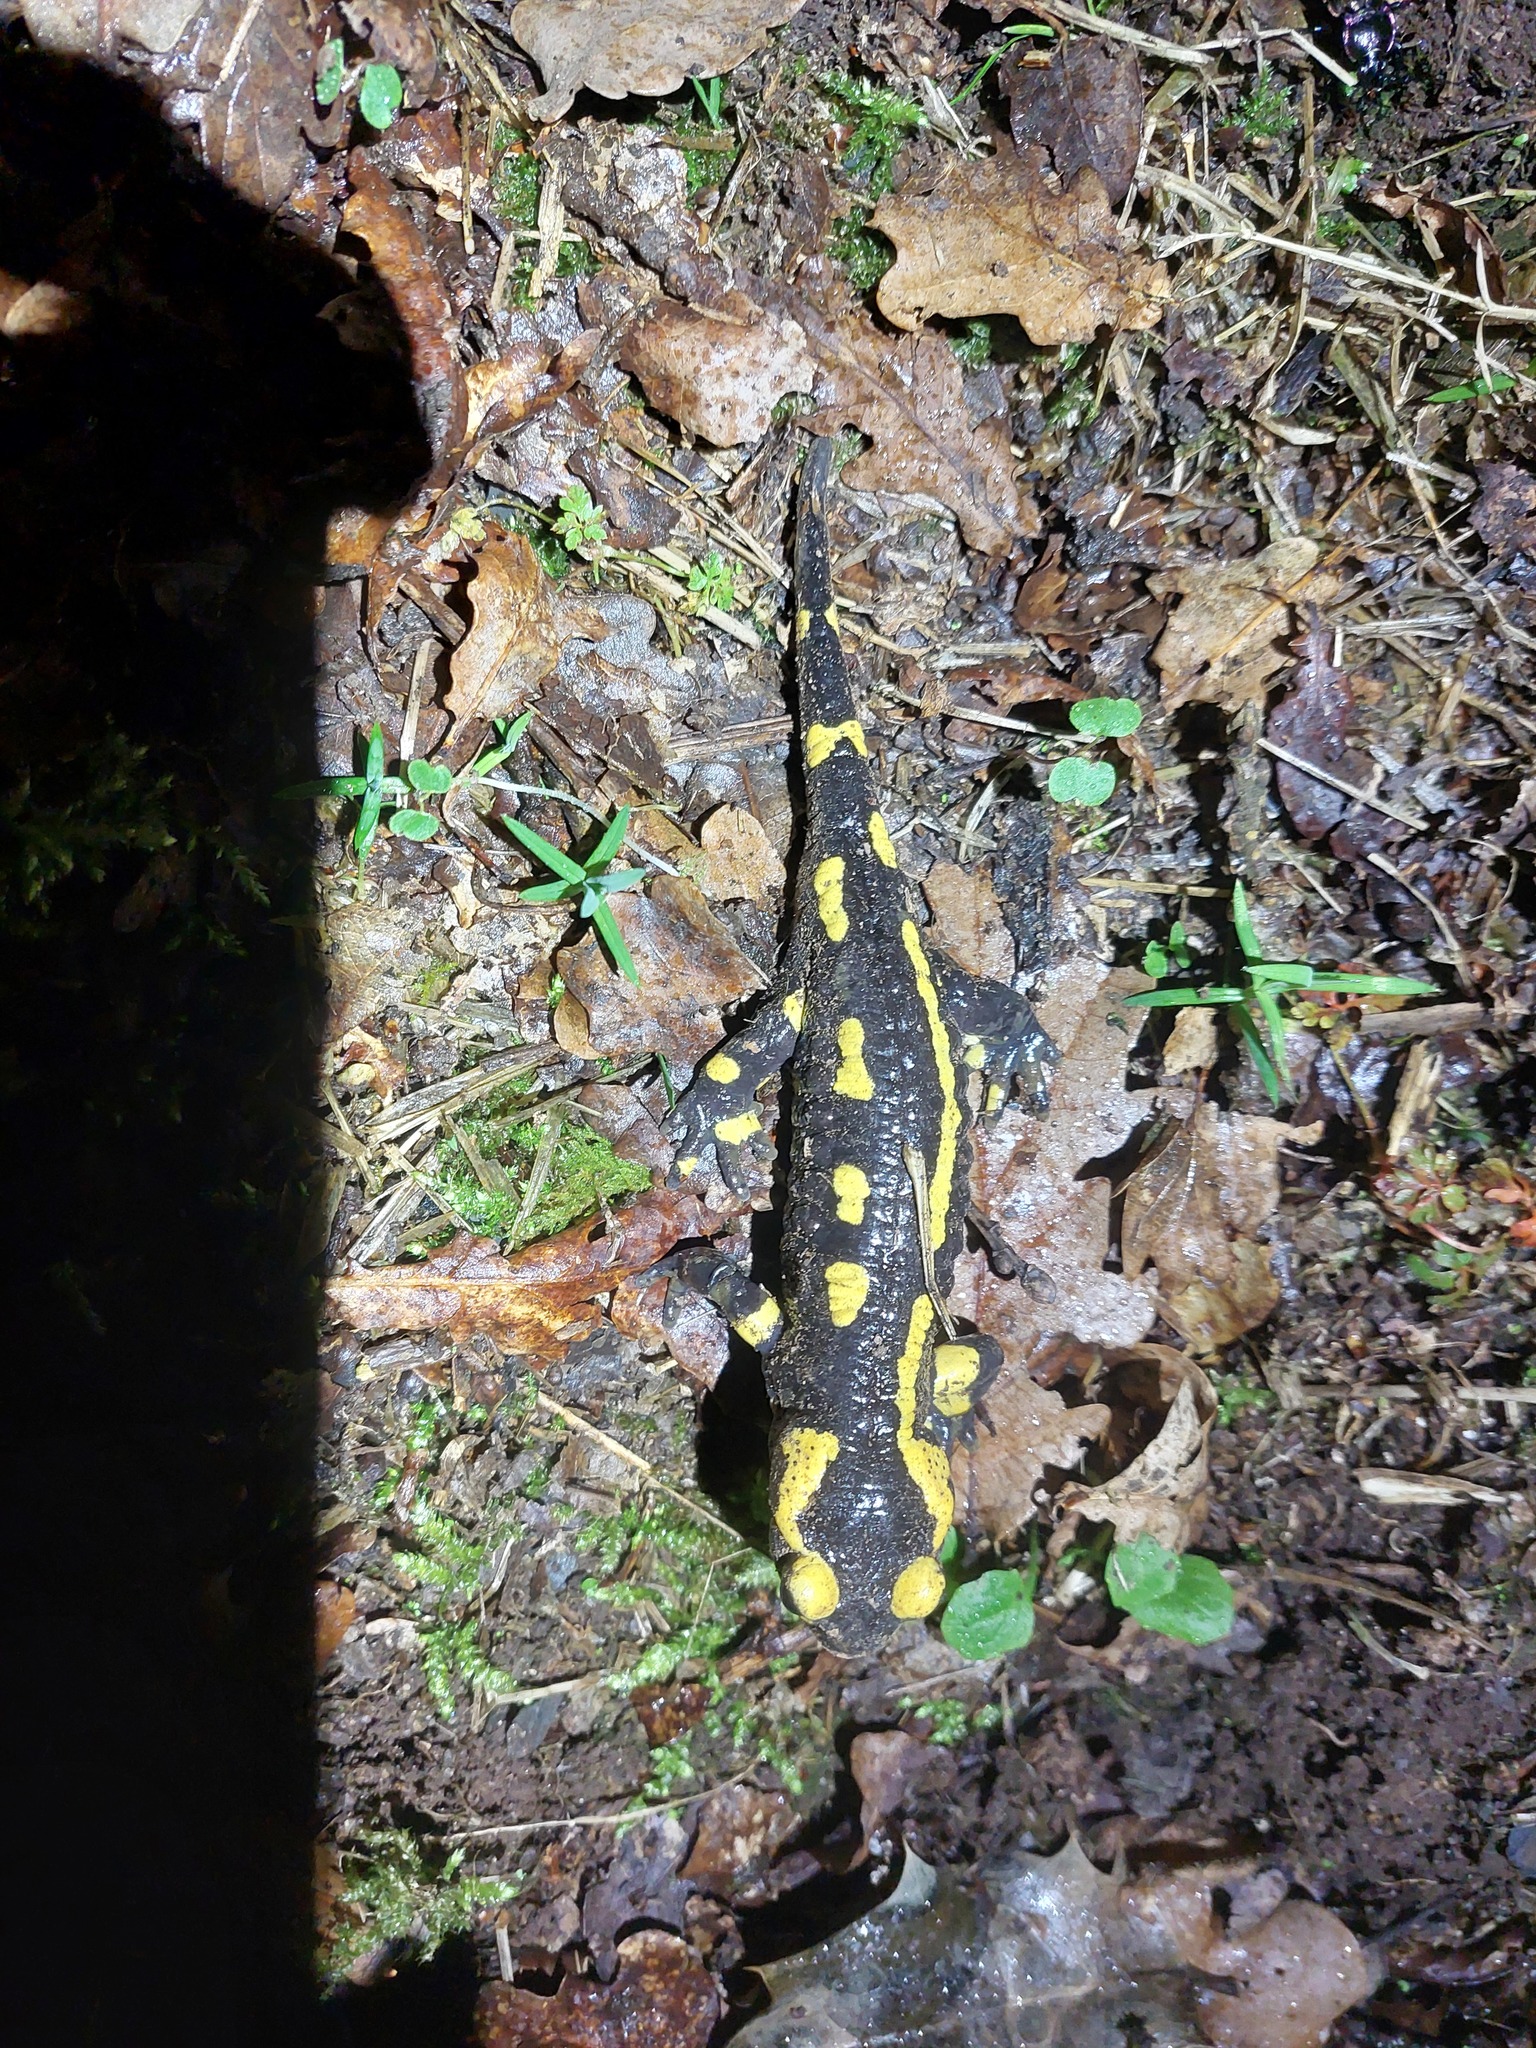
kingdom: Animalia
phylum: Chordata
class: Amphibia
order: Caudata
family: Salamandridae
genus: Salamandra
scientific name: Salamandra salamandra
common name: Fire salamander
